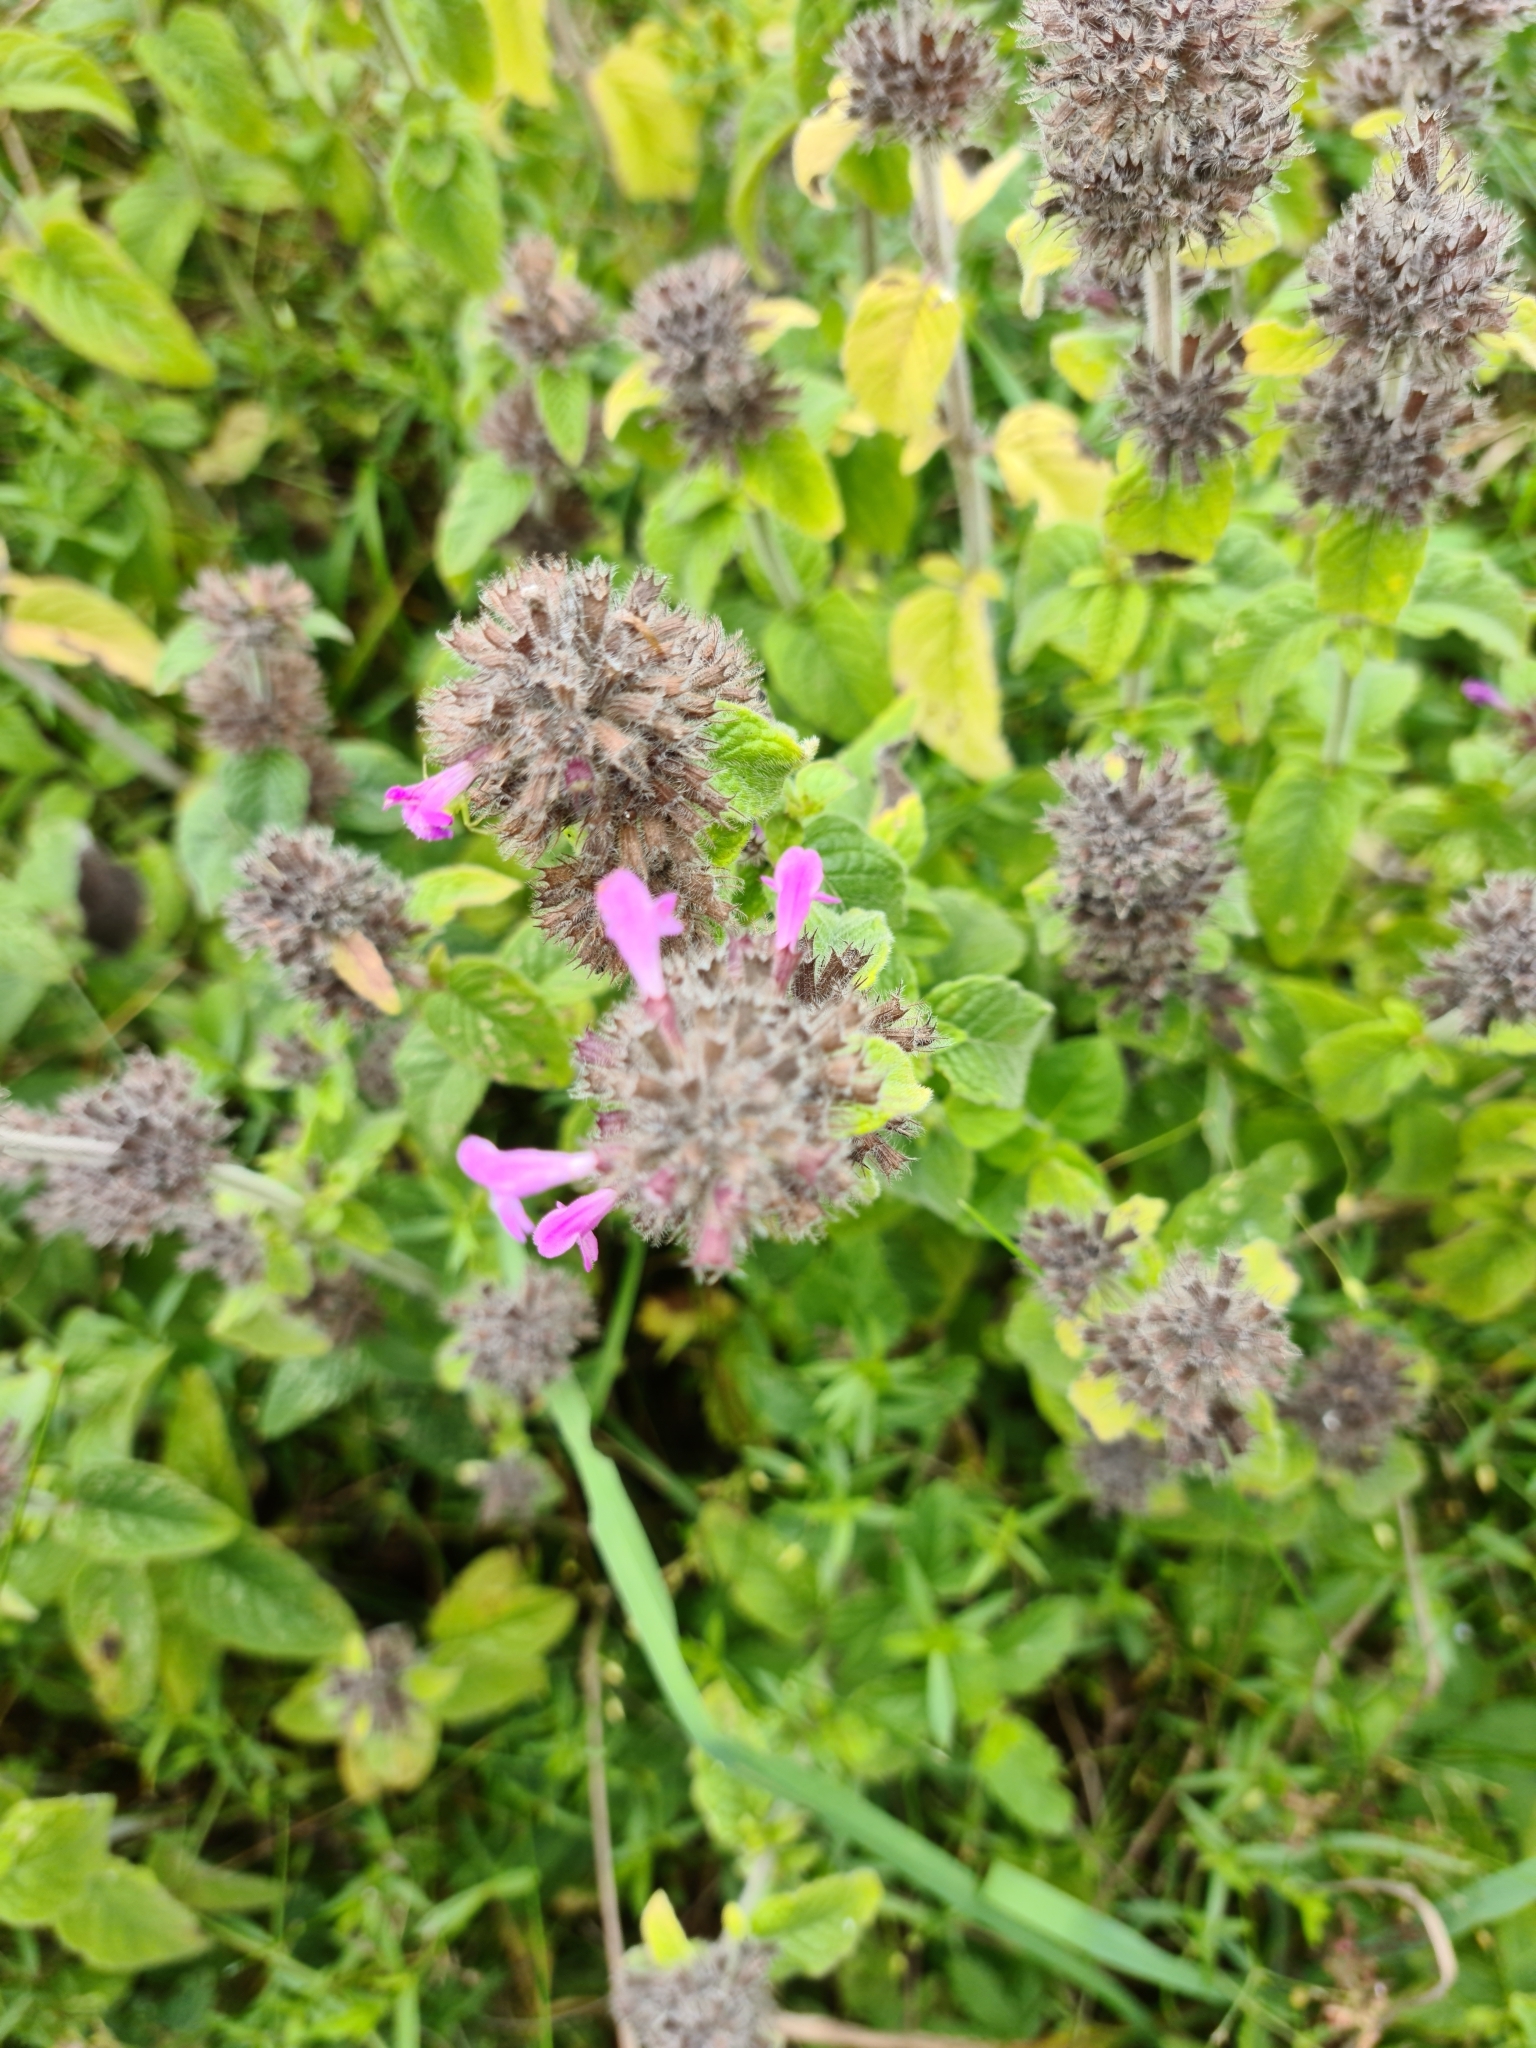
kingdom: Plantae
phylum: Tracheophyta
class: Magnoliopsida
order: Lamiales
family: Lamiaceae
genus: Clinopodium
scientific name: Clinopodium vulgare
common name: Wild basil
